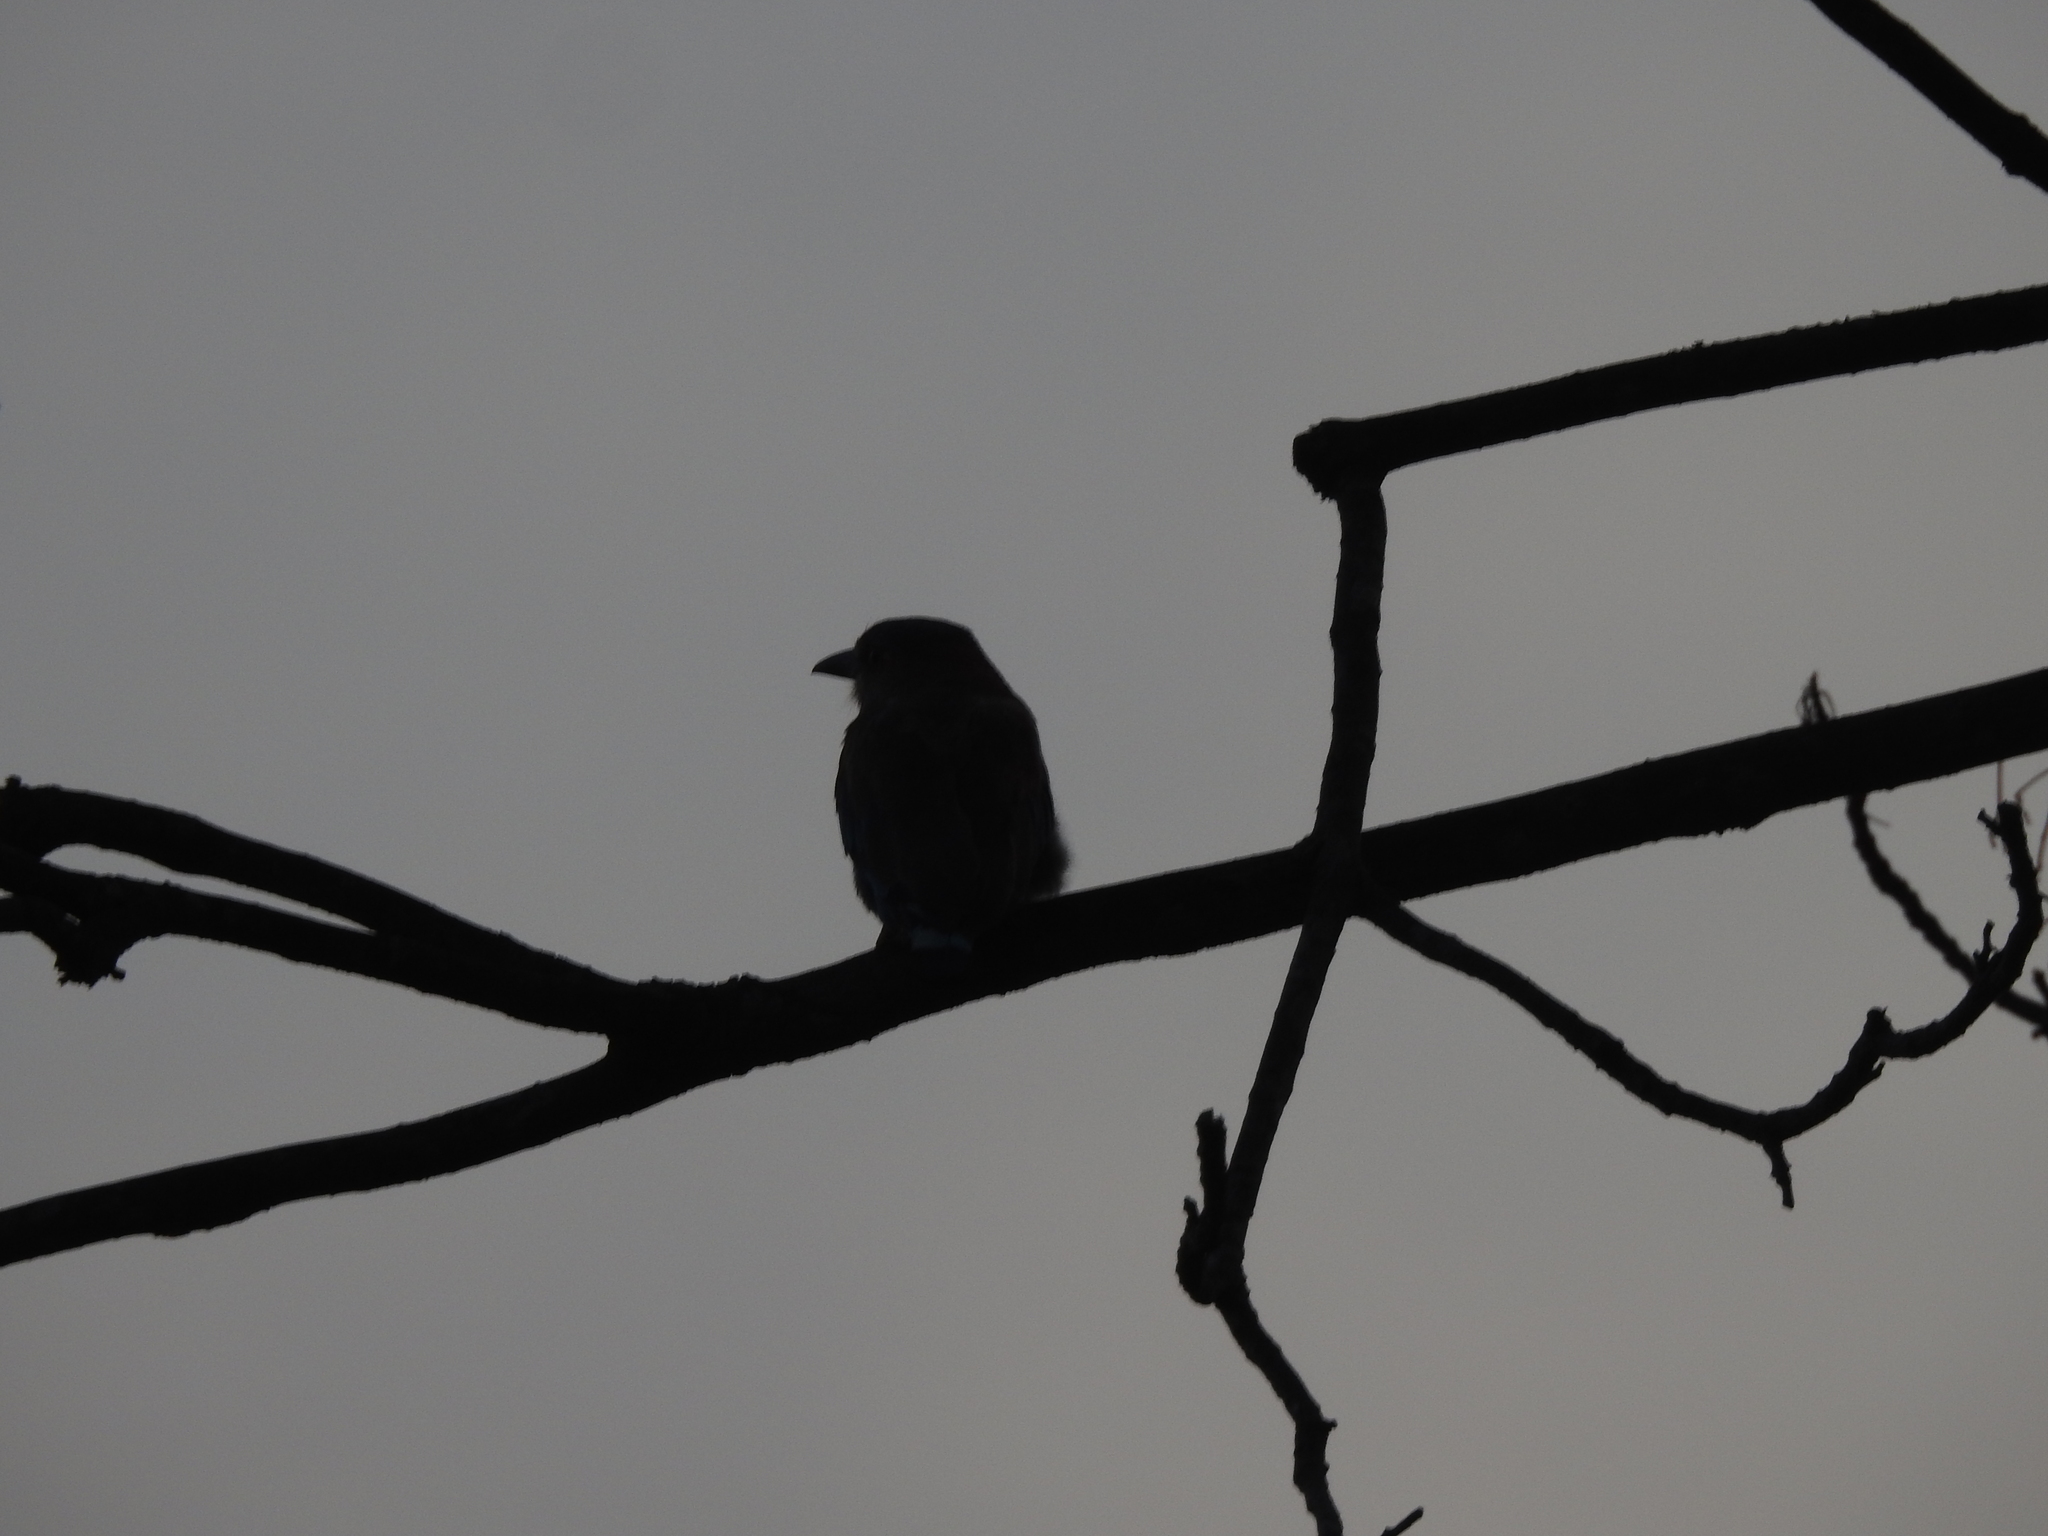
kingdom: Animalia
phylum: Chordata
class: Aves
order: Coraciiformes
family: Coraciidae
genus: Coracias
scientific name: Coracias benghalensis
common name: Indian roller
